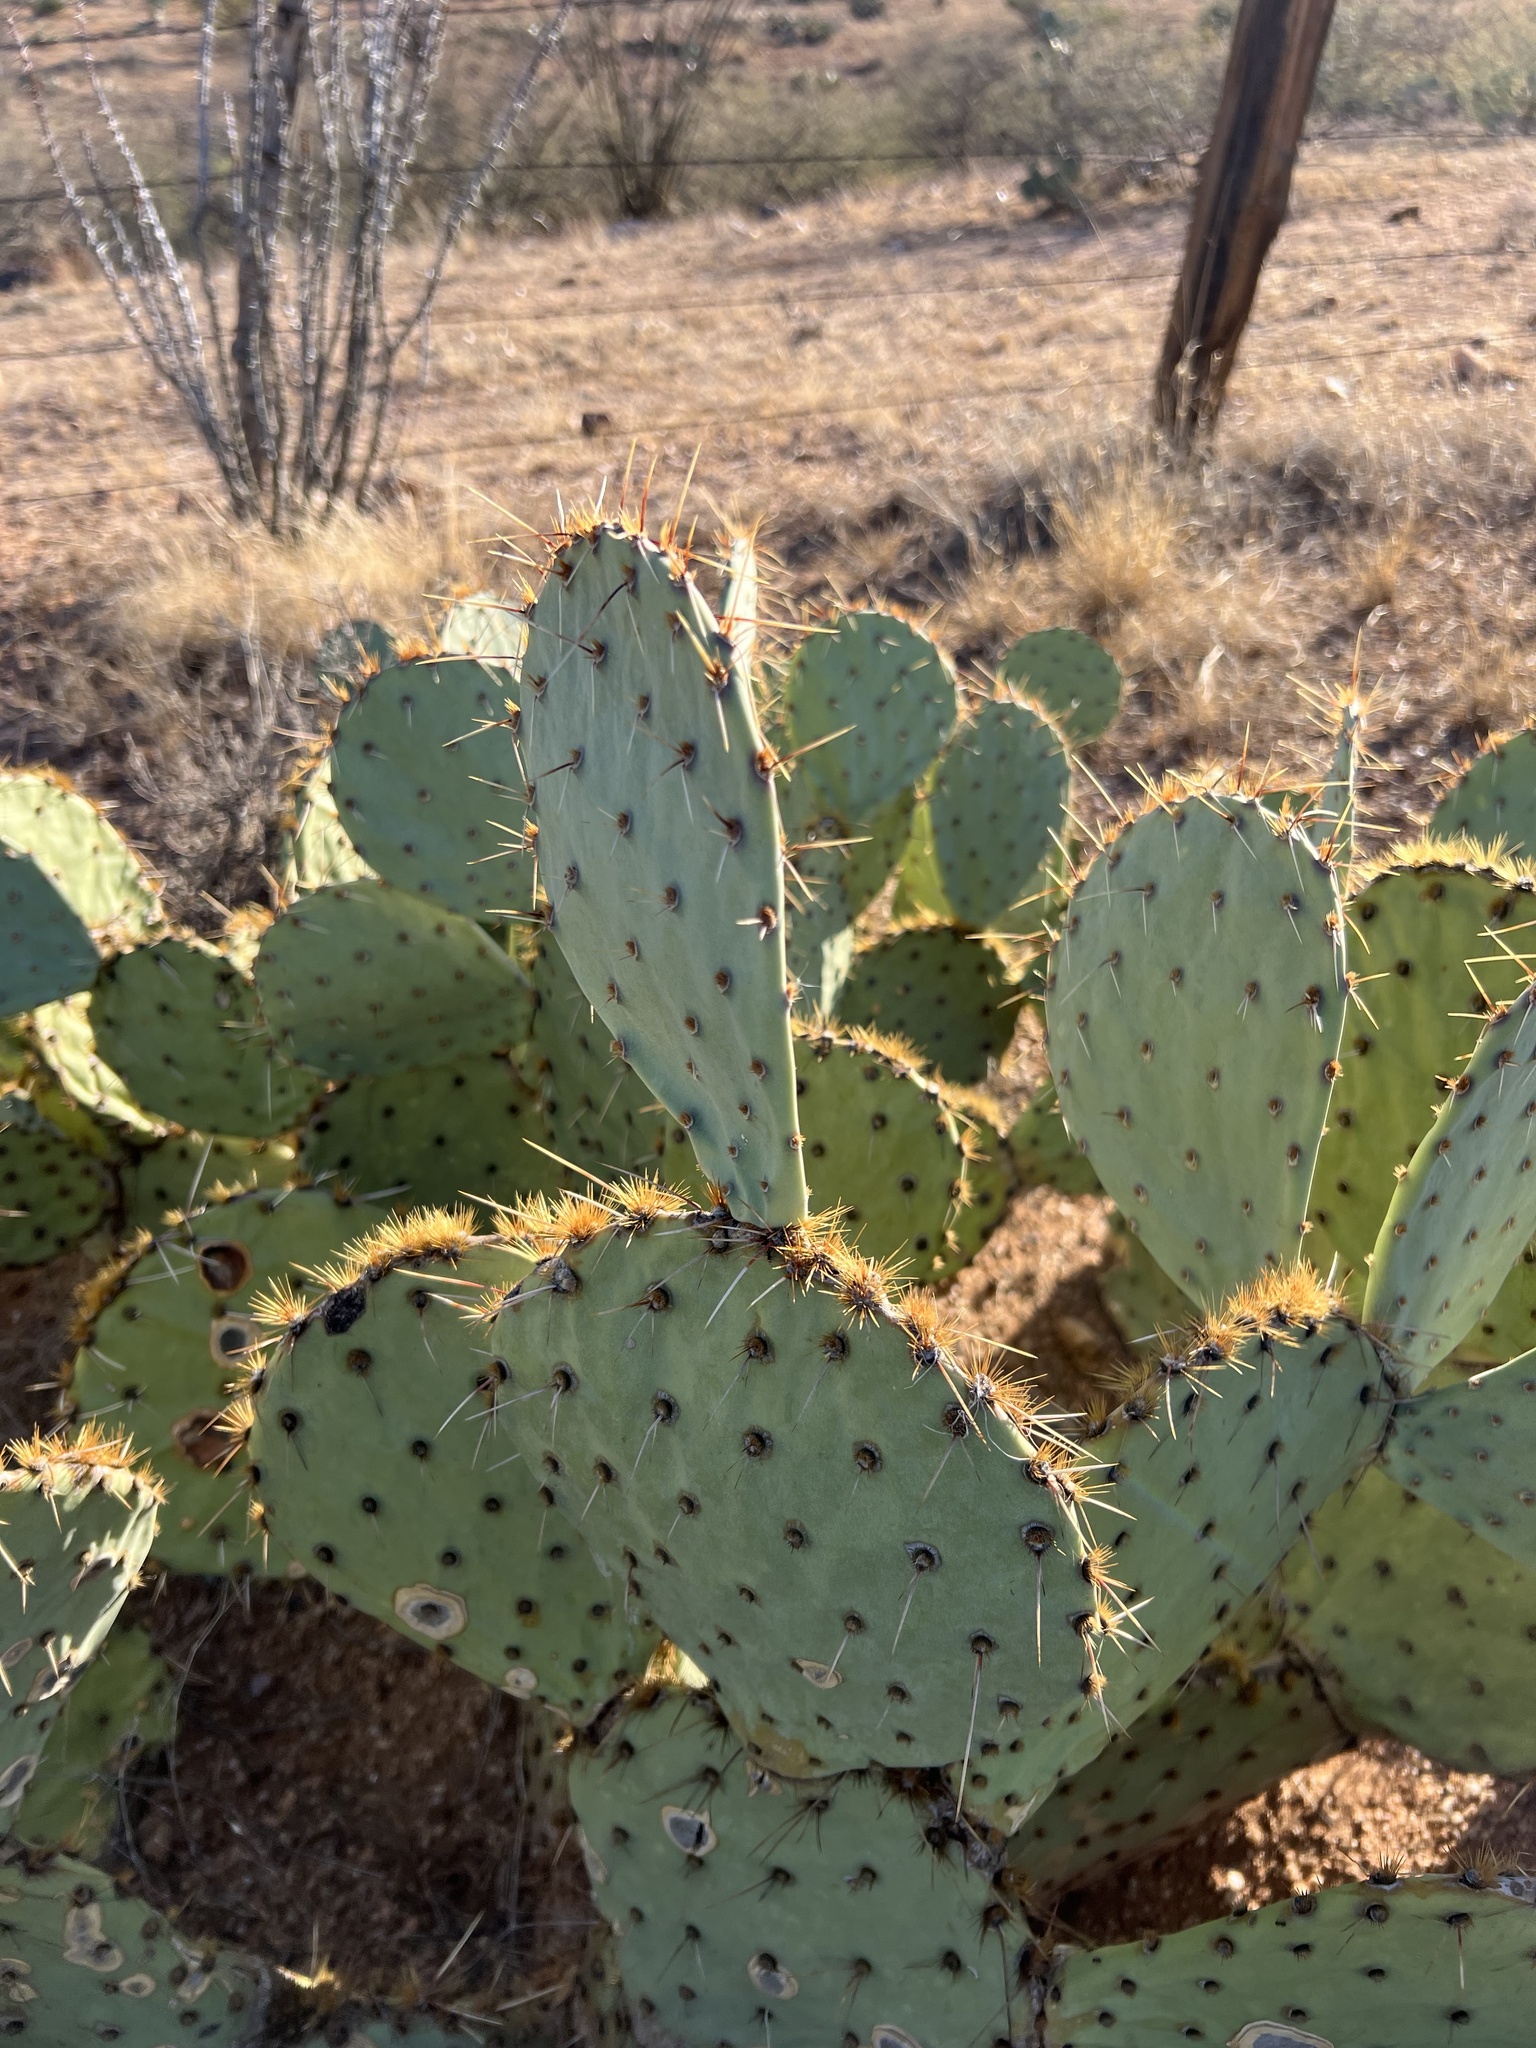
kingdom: Plantae
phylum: Tracheophyta
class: Magnoliopsida
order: Caryophyllales
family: Cactaceae
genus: Opuntia
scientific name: Opuntia engelmannii
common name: Cactus-apple
